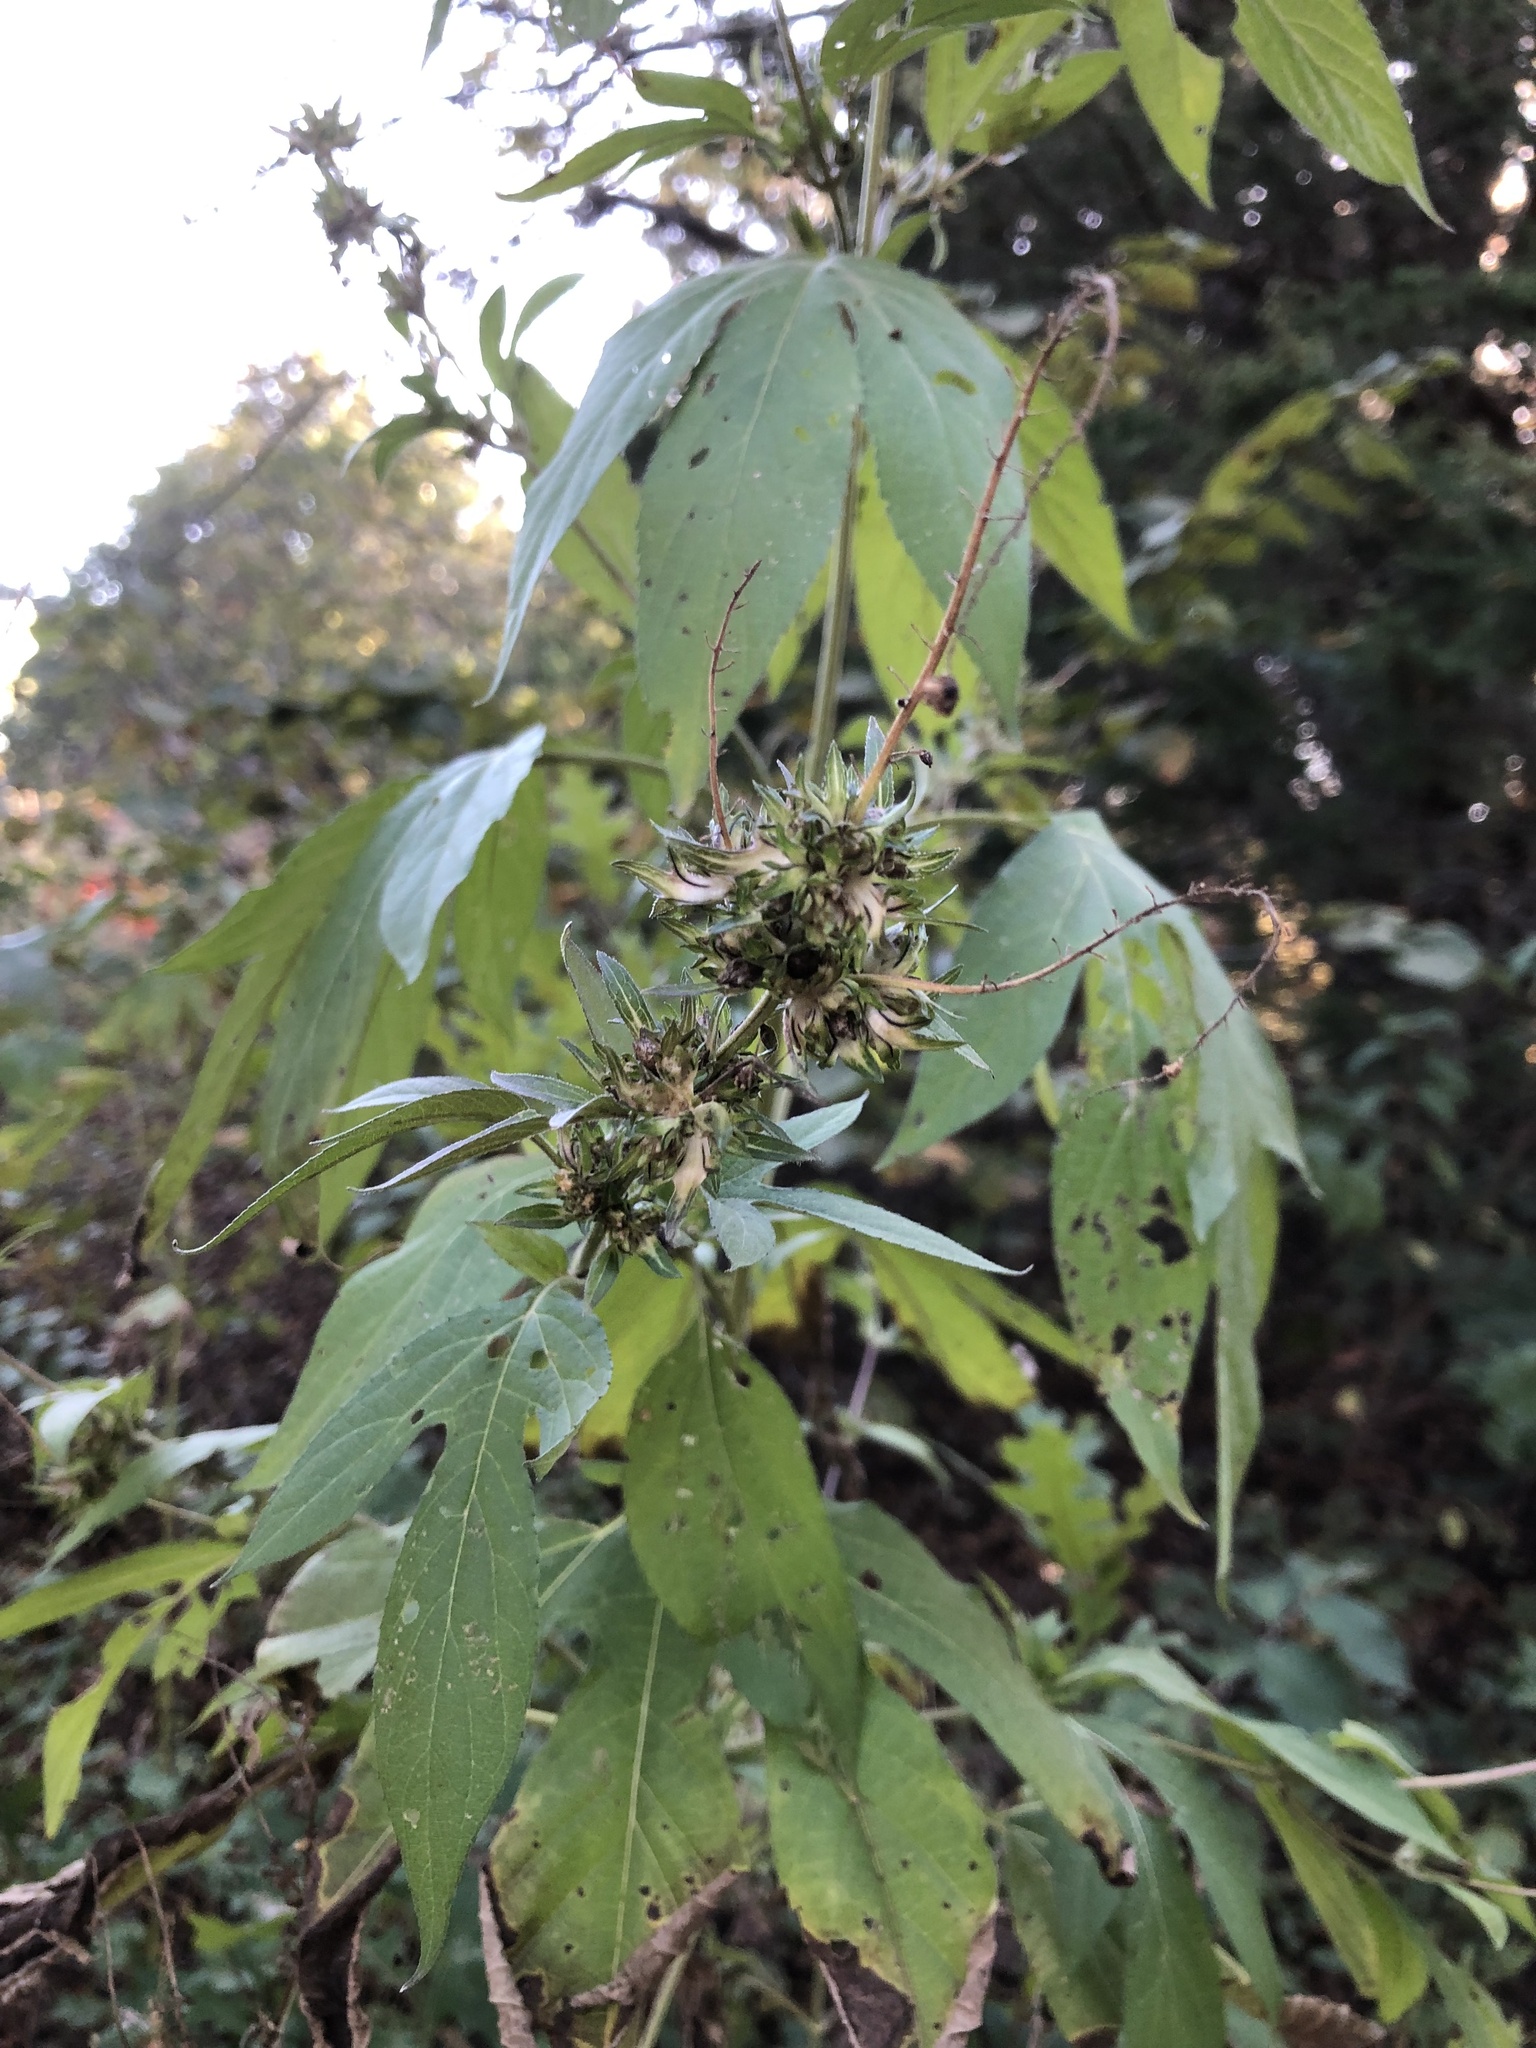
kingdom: Plantae
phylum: Tracheophyta
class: Magnoliopsida
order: Asterales
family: Asteraceae
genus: Ambrosia
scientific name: Ambrosia trifida
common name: Giant ragweed
